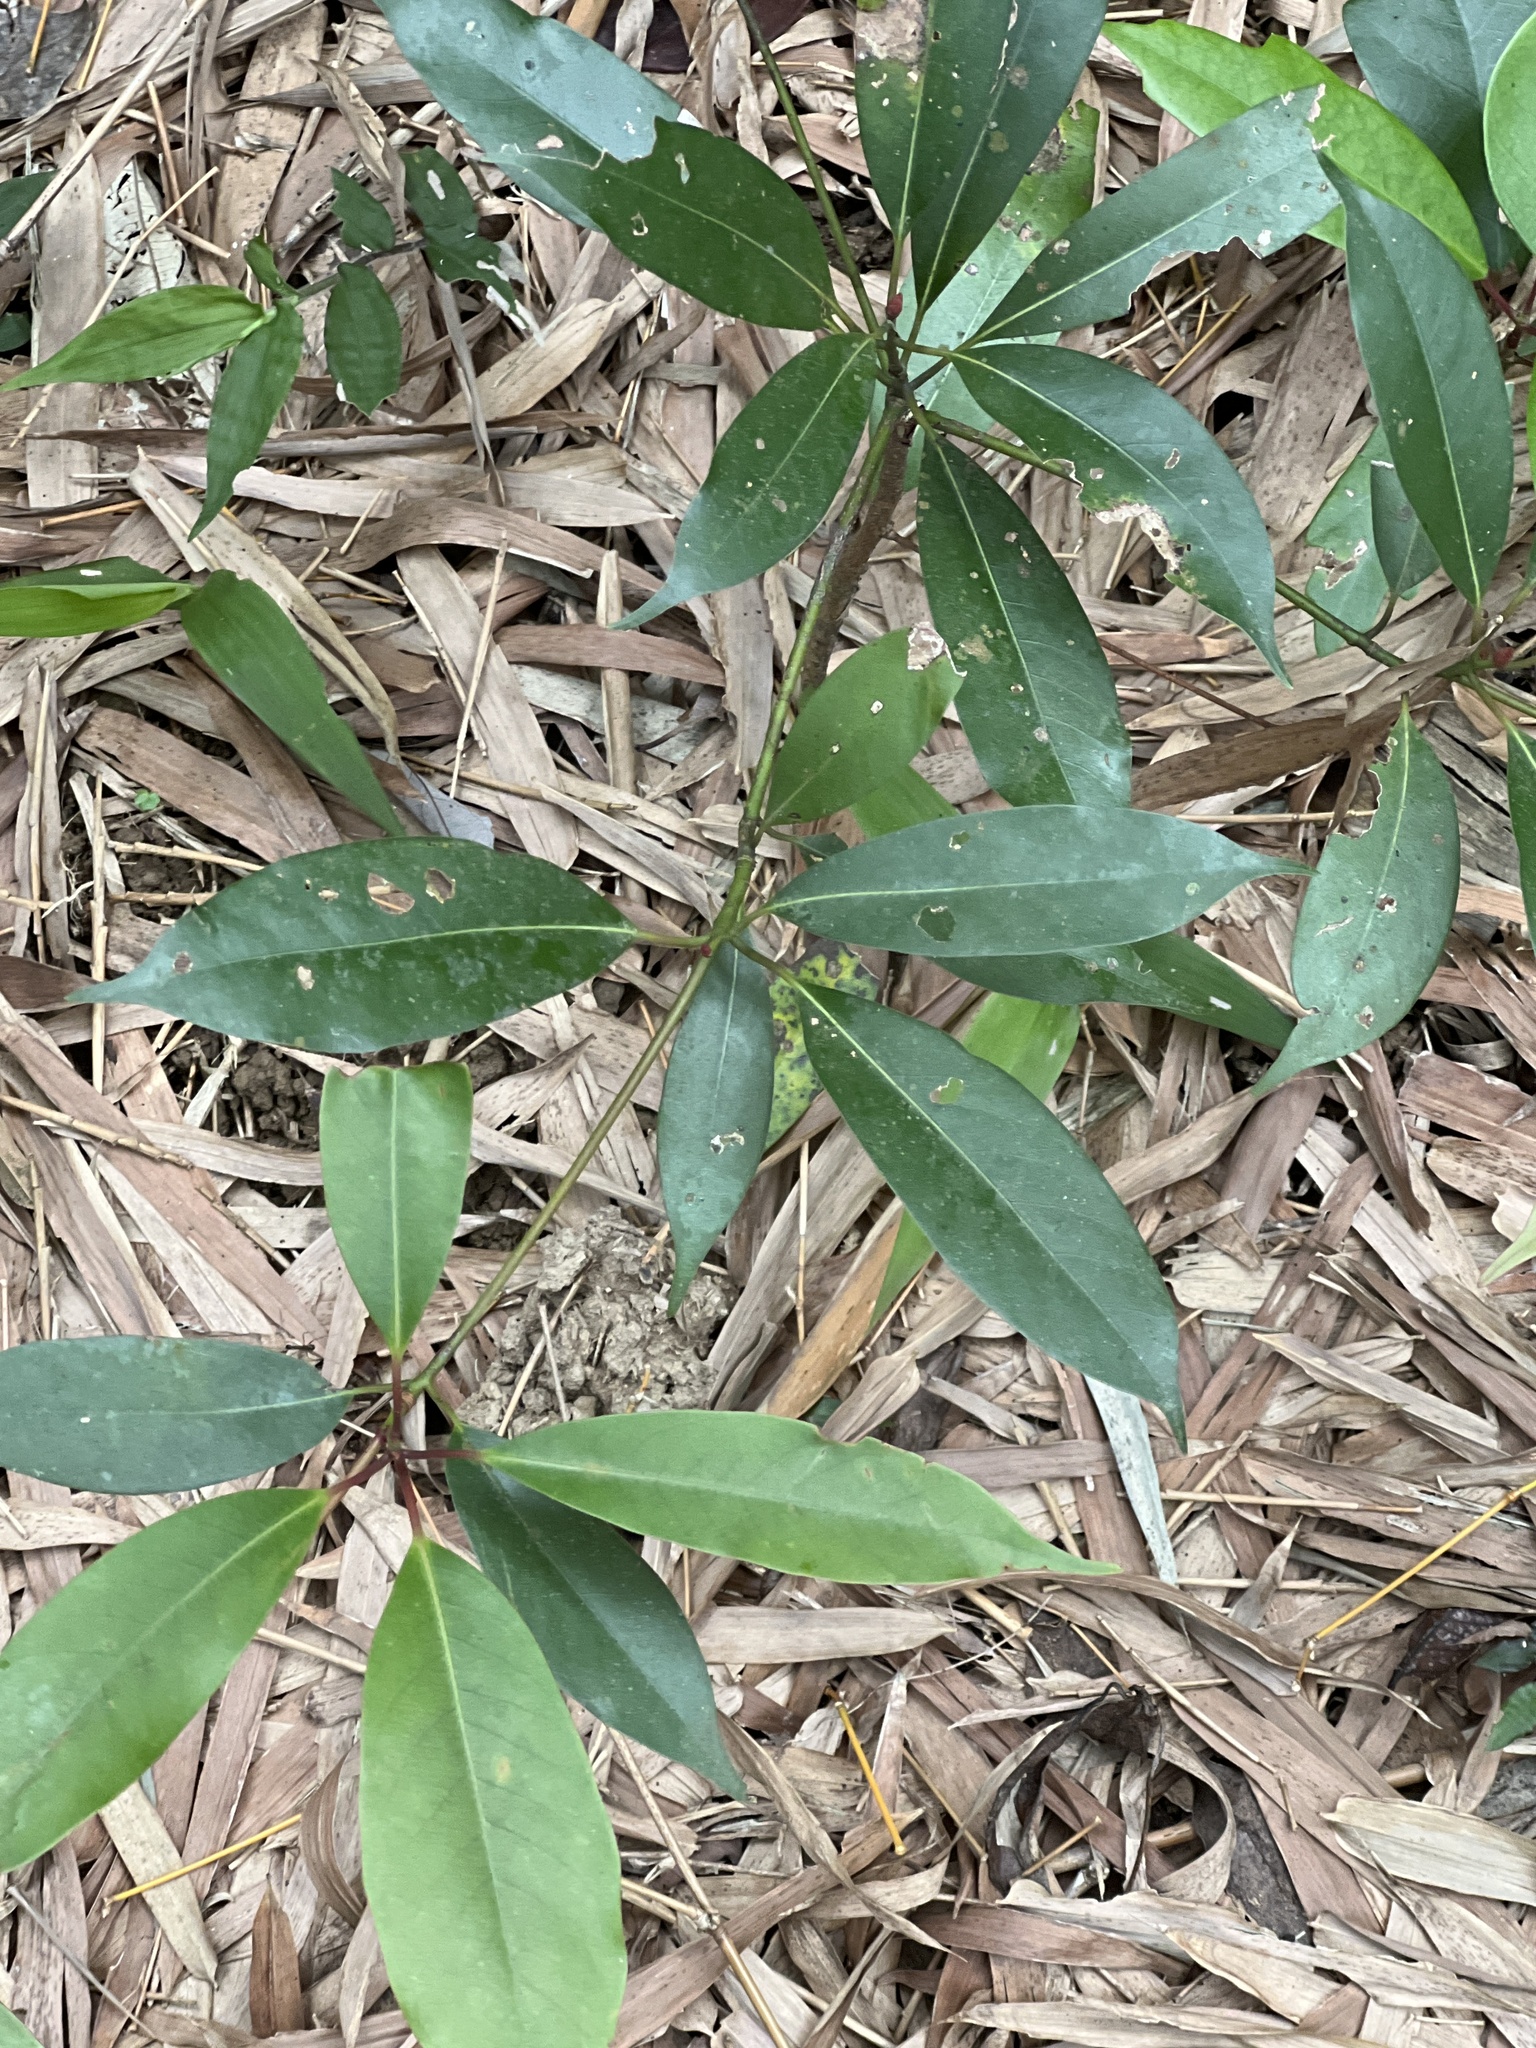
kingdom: Plantae
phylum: Tracheophyta
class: Magnoliopsida
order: Laurales
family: Lauraceae
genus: Machilus
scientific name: Machilus thunbergii
